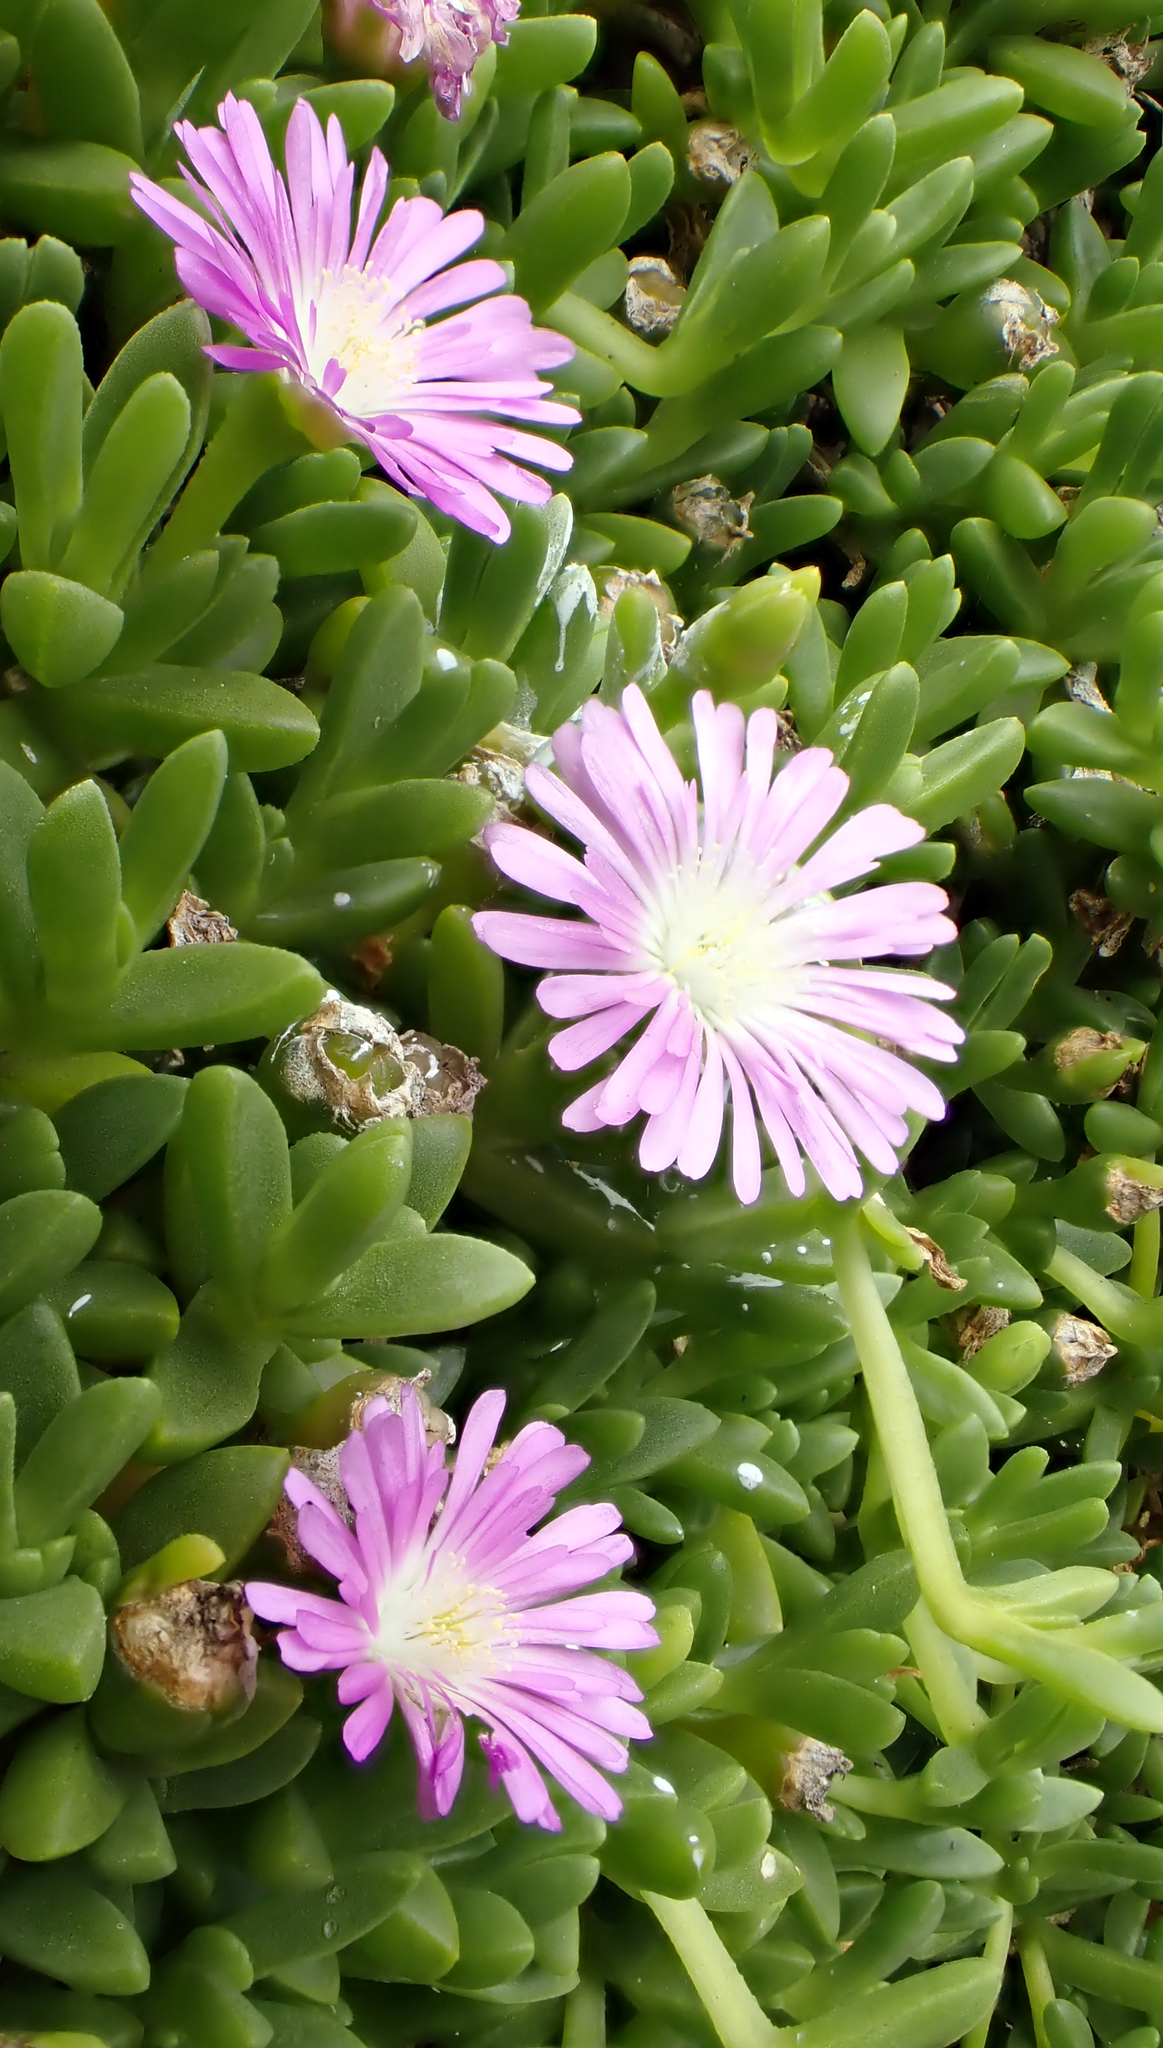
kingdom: Plantae
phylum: Tracheophyta
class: Magnoliopsida
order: Caryophyllales
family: Aizoaceae
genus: Disphyma
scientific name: Disphyma papillatum
